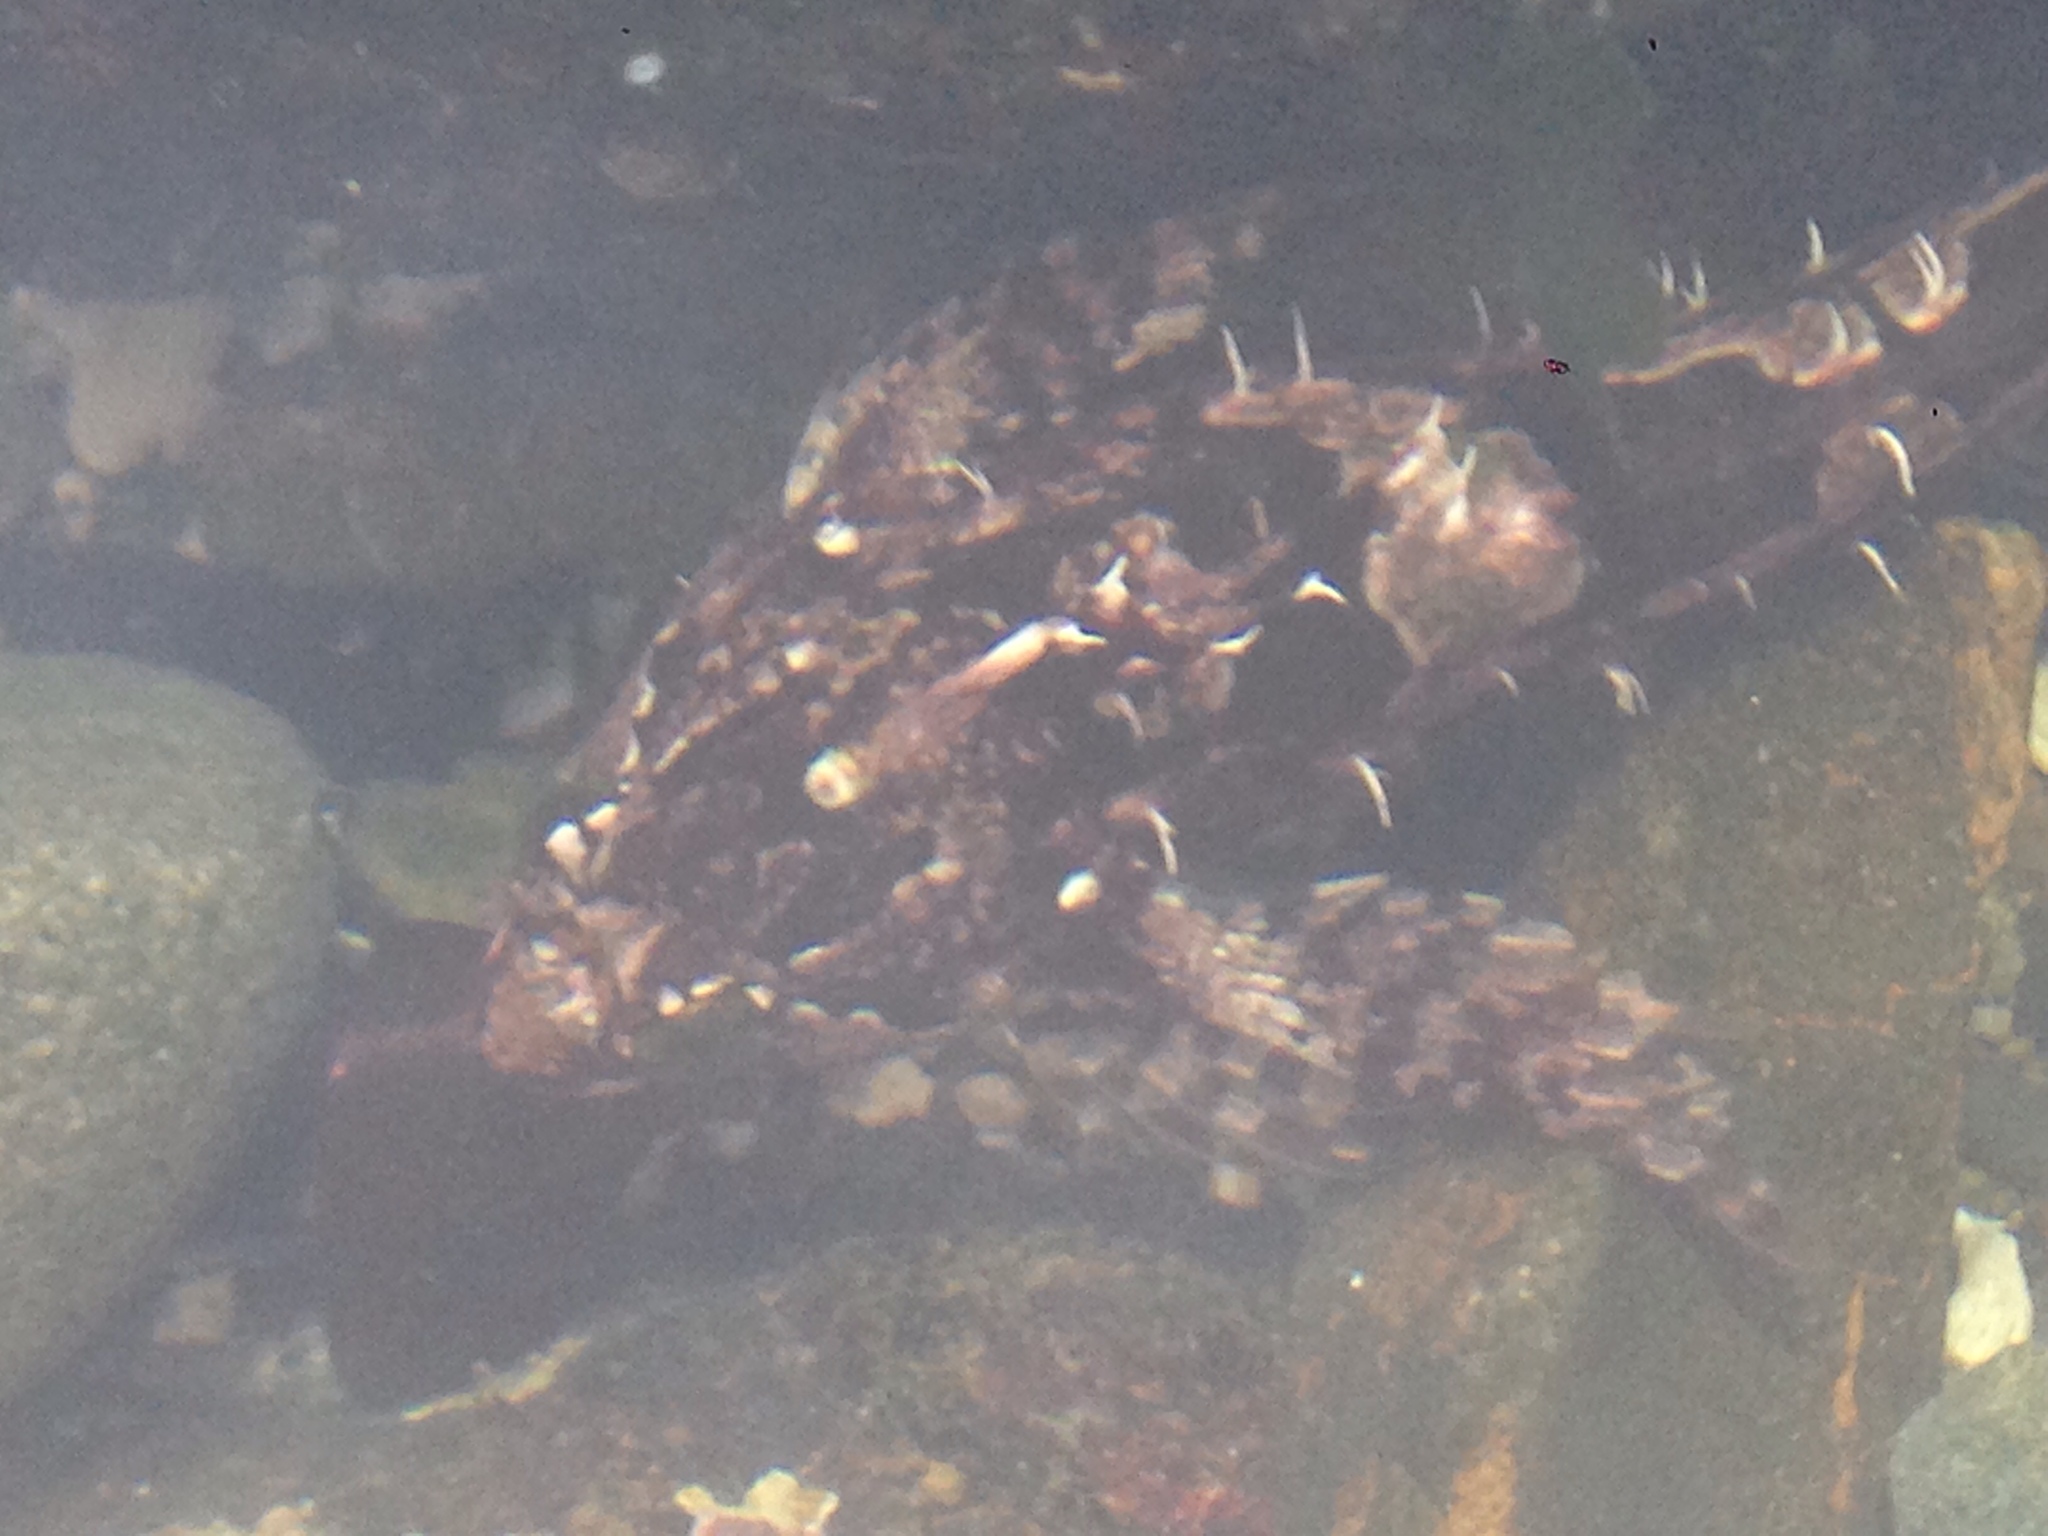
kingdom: Animalia
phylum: Chordata
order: Scorpaeniformes
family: Cottidae
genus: Oligocottus
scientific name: Oligocottus snyderi
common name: Fluffy sculpin
